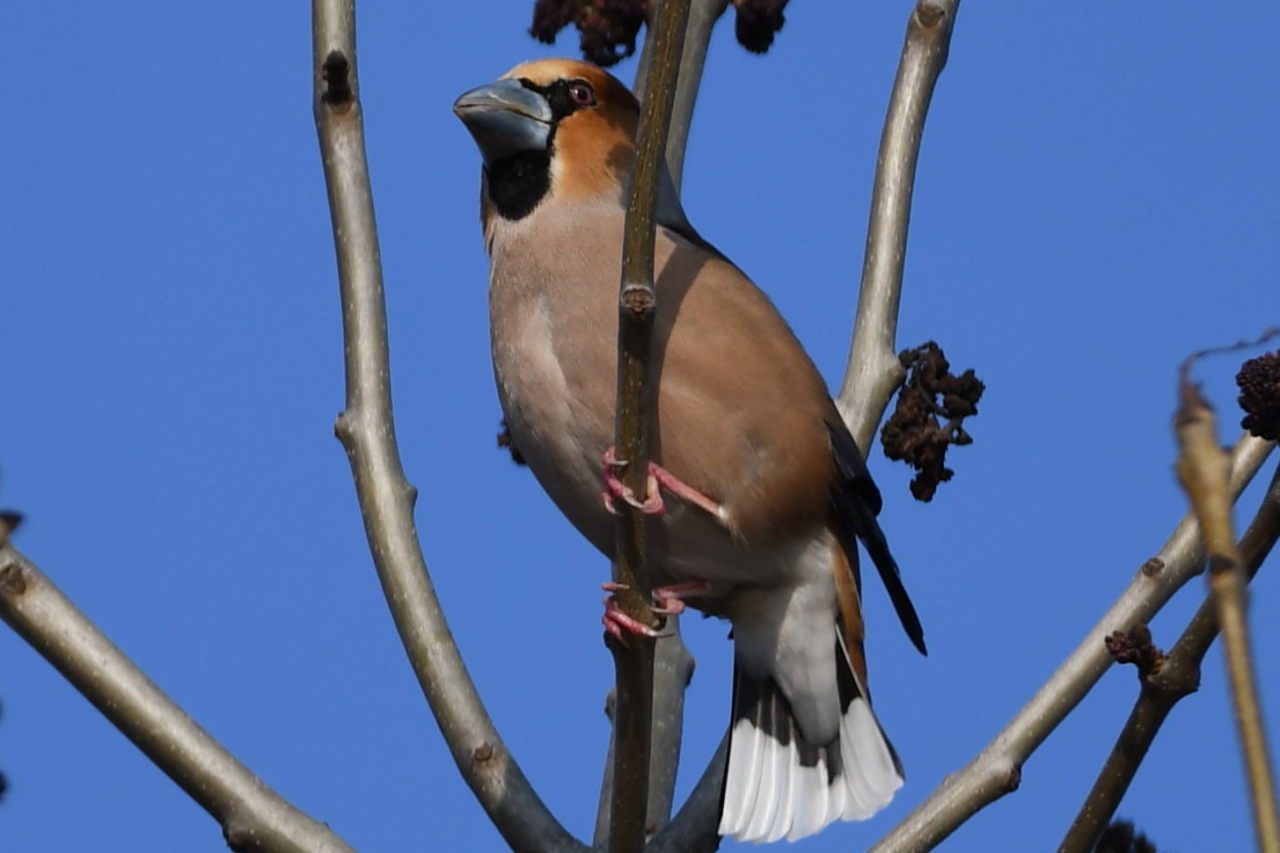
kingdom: Animalia
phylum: Chordata
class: Aves
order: Passeriformes
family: Fringillidae
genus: Coccothraustes
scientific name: Coccothraustes coccothraustes
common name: Hawfinch
